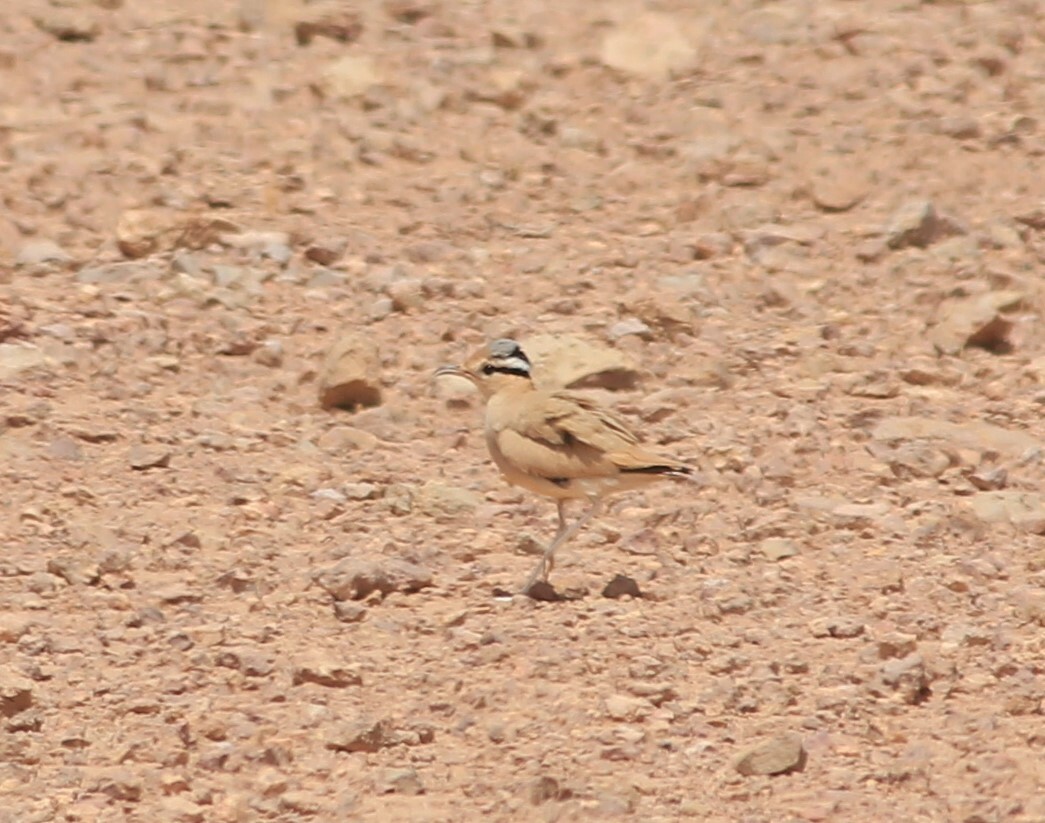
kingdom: Animalia
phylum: Chordata
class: Aves
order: Charadriiformes
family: Glareolidae
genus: Cursorius
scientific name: Cursorius cursor
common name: Cream-colored courser
